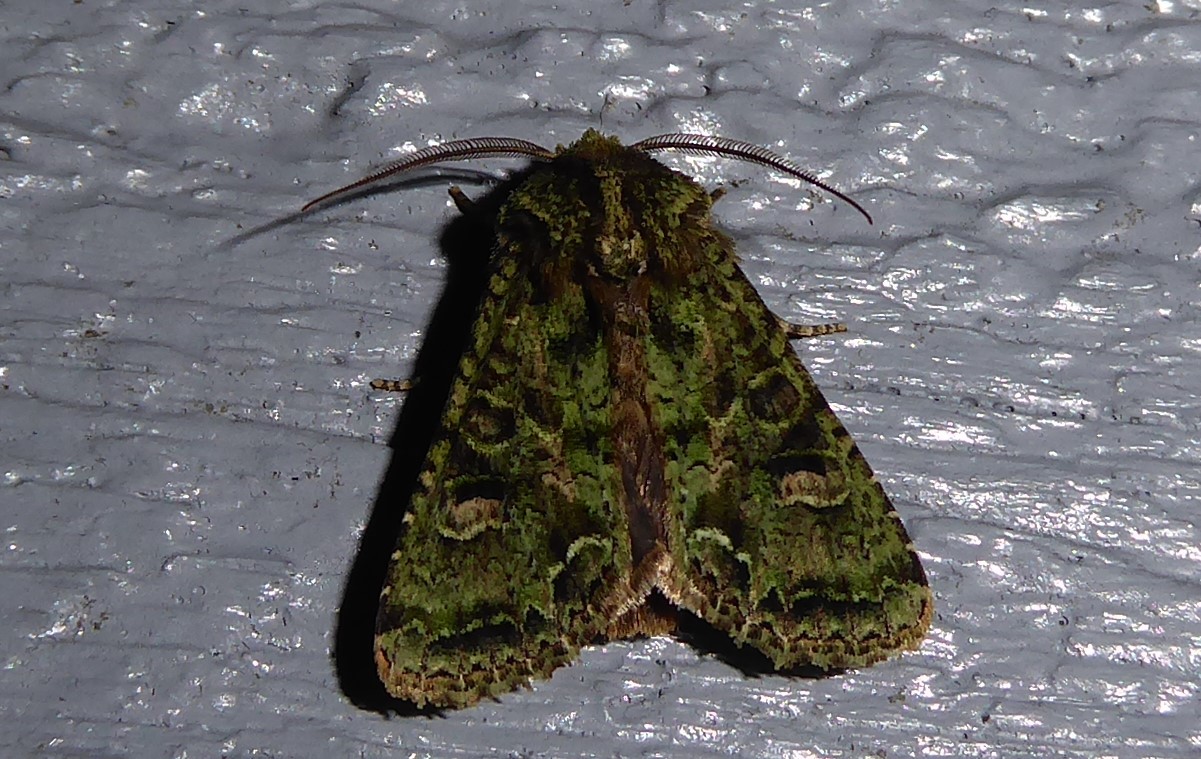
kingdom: Animalia
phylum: Arthropoda
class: Insecta
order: Lepidoptera
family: Noctuidae
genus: Ichneutica
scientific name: Ichneutica
